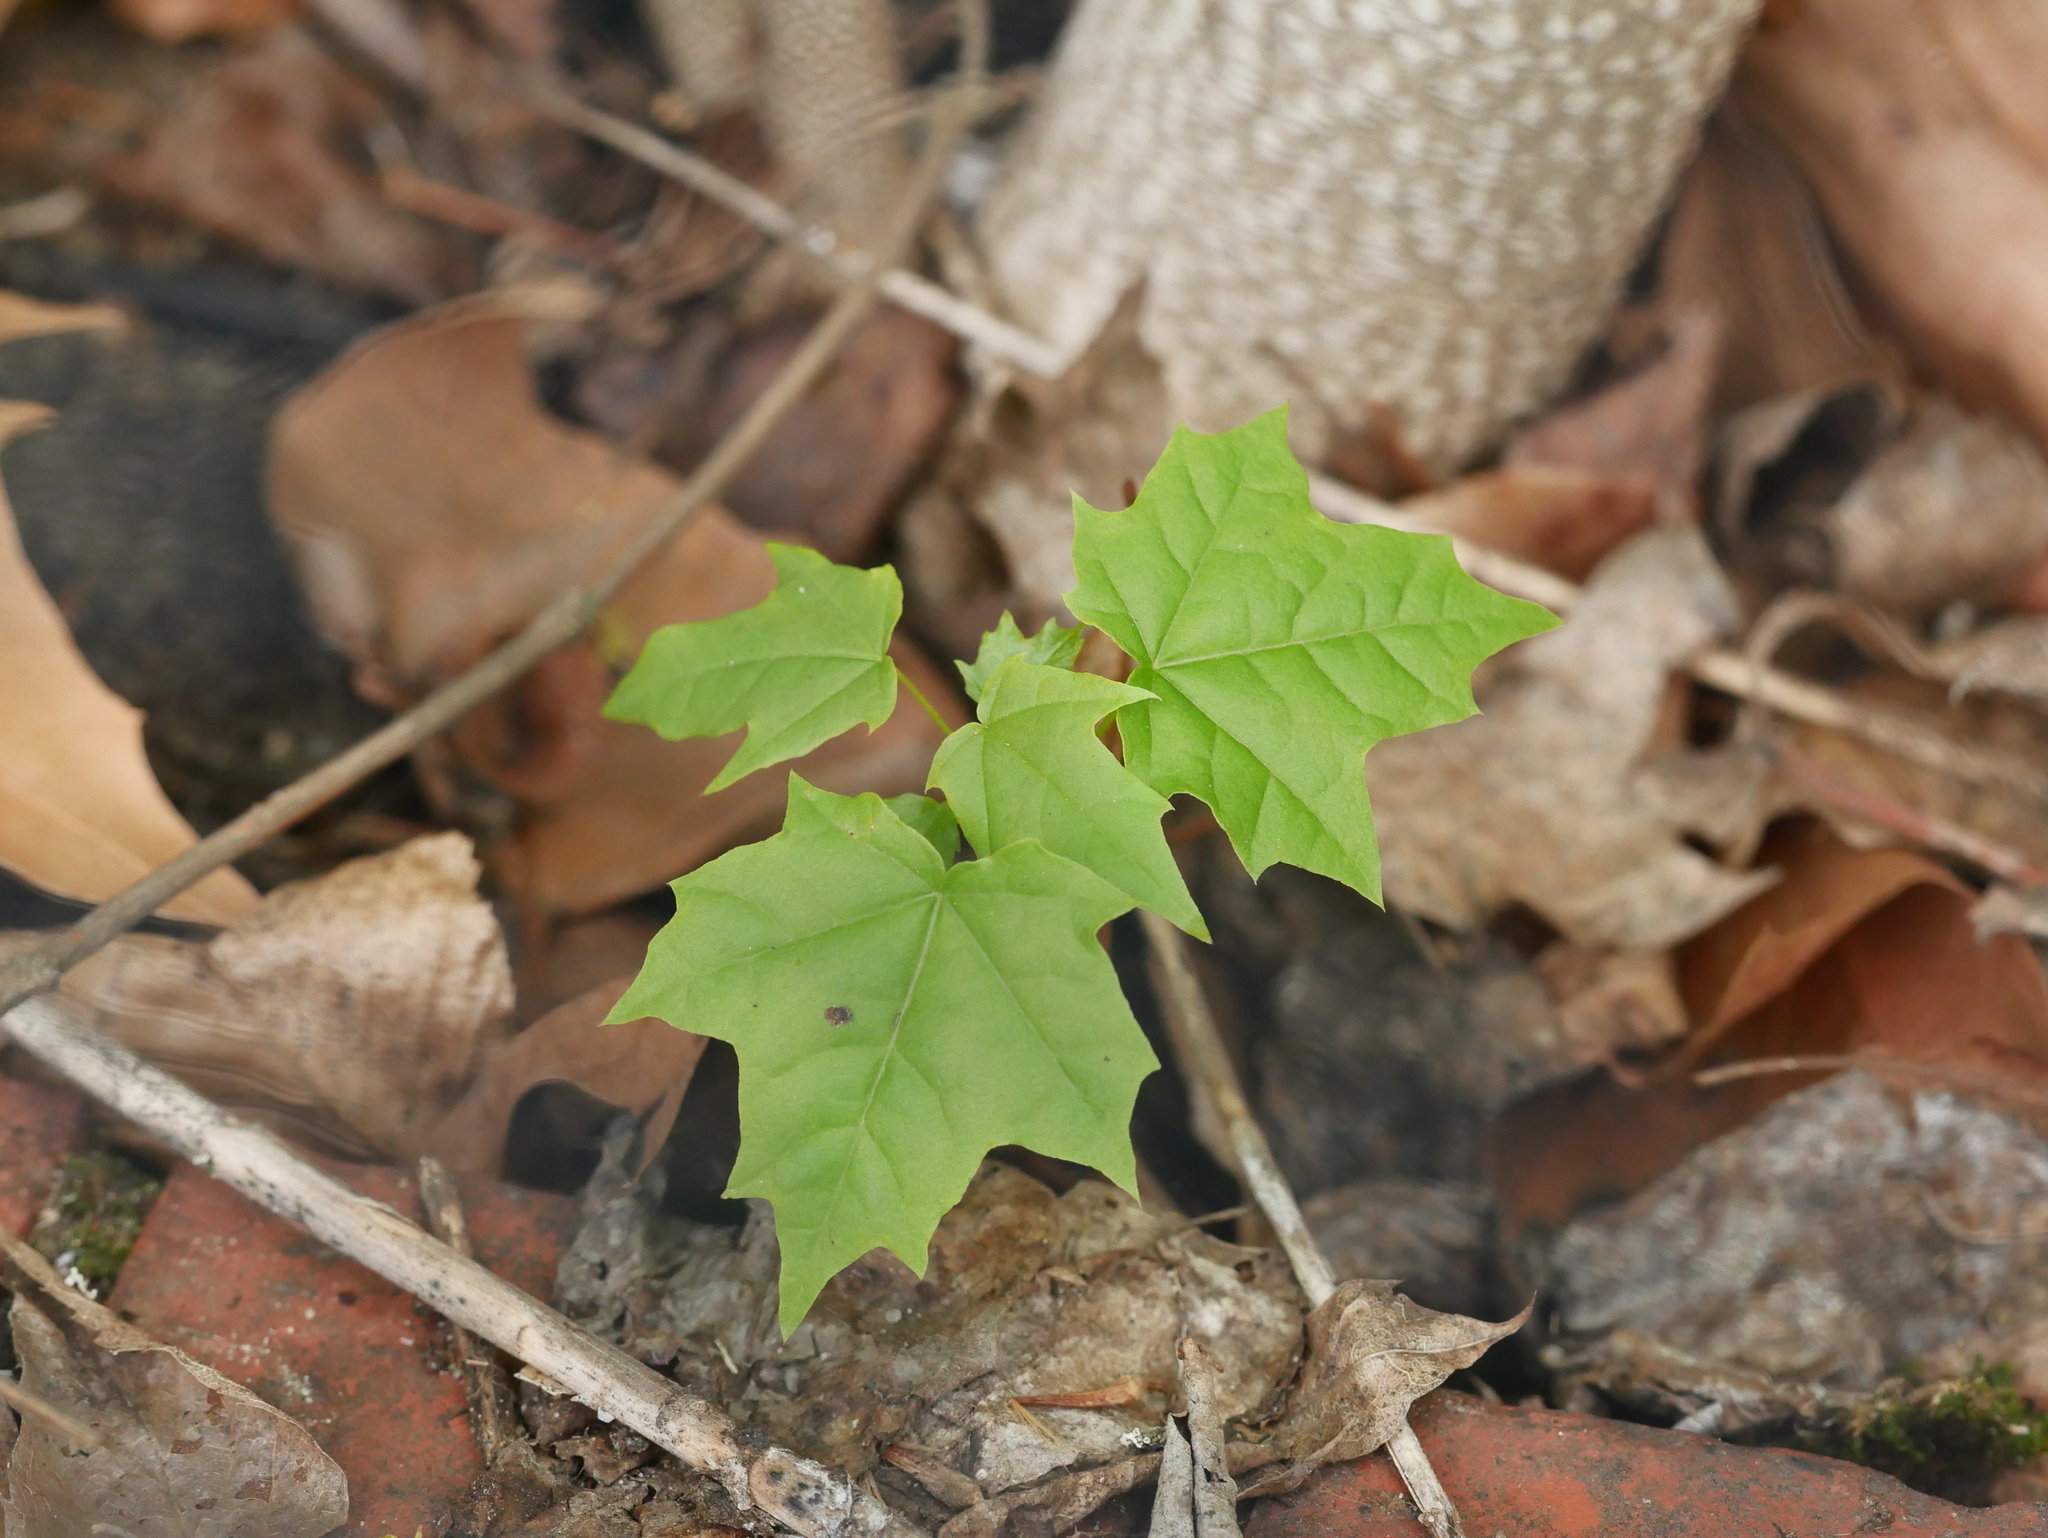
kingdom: Plantae
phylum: Tracheophyta
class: Magnoliopsida
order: Sapindales
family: Sapindaceae
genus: Acer
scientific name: Acer platanoides
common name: Norway maple
